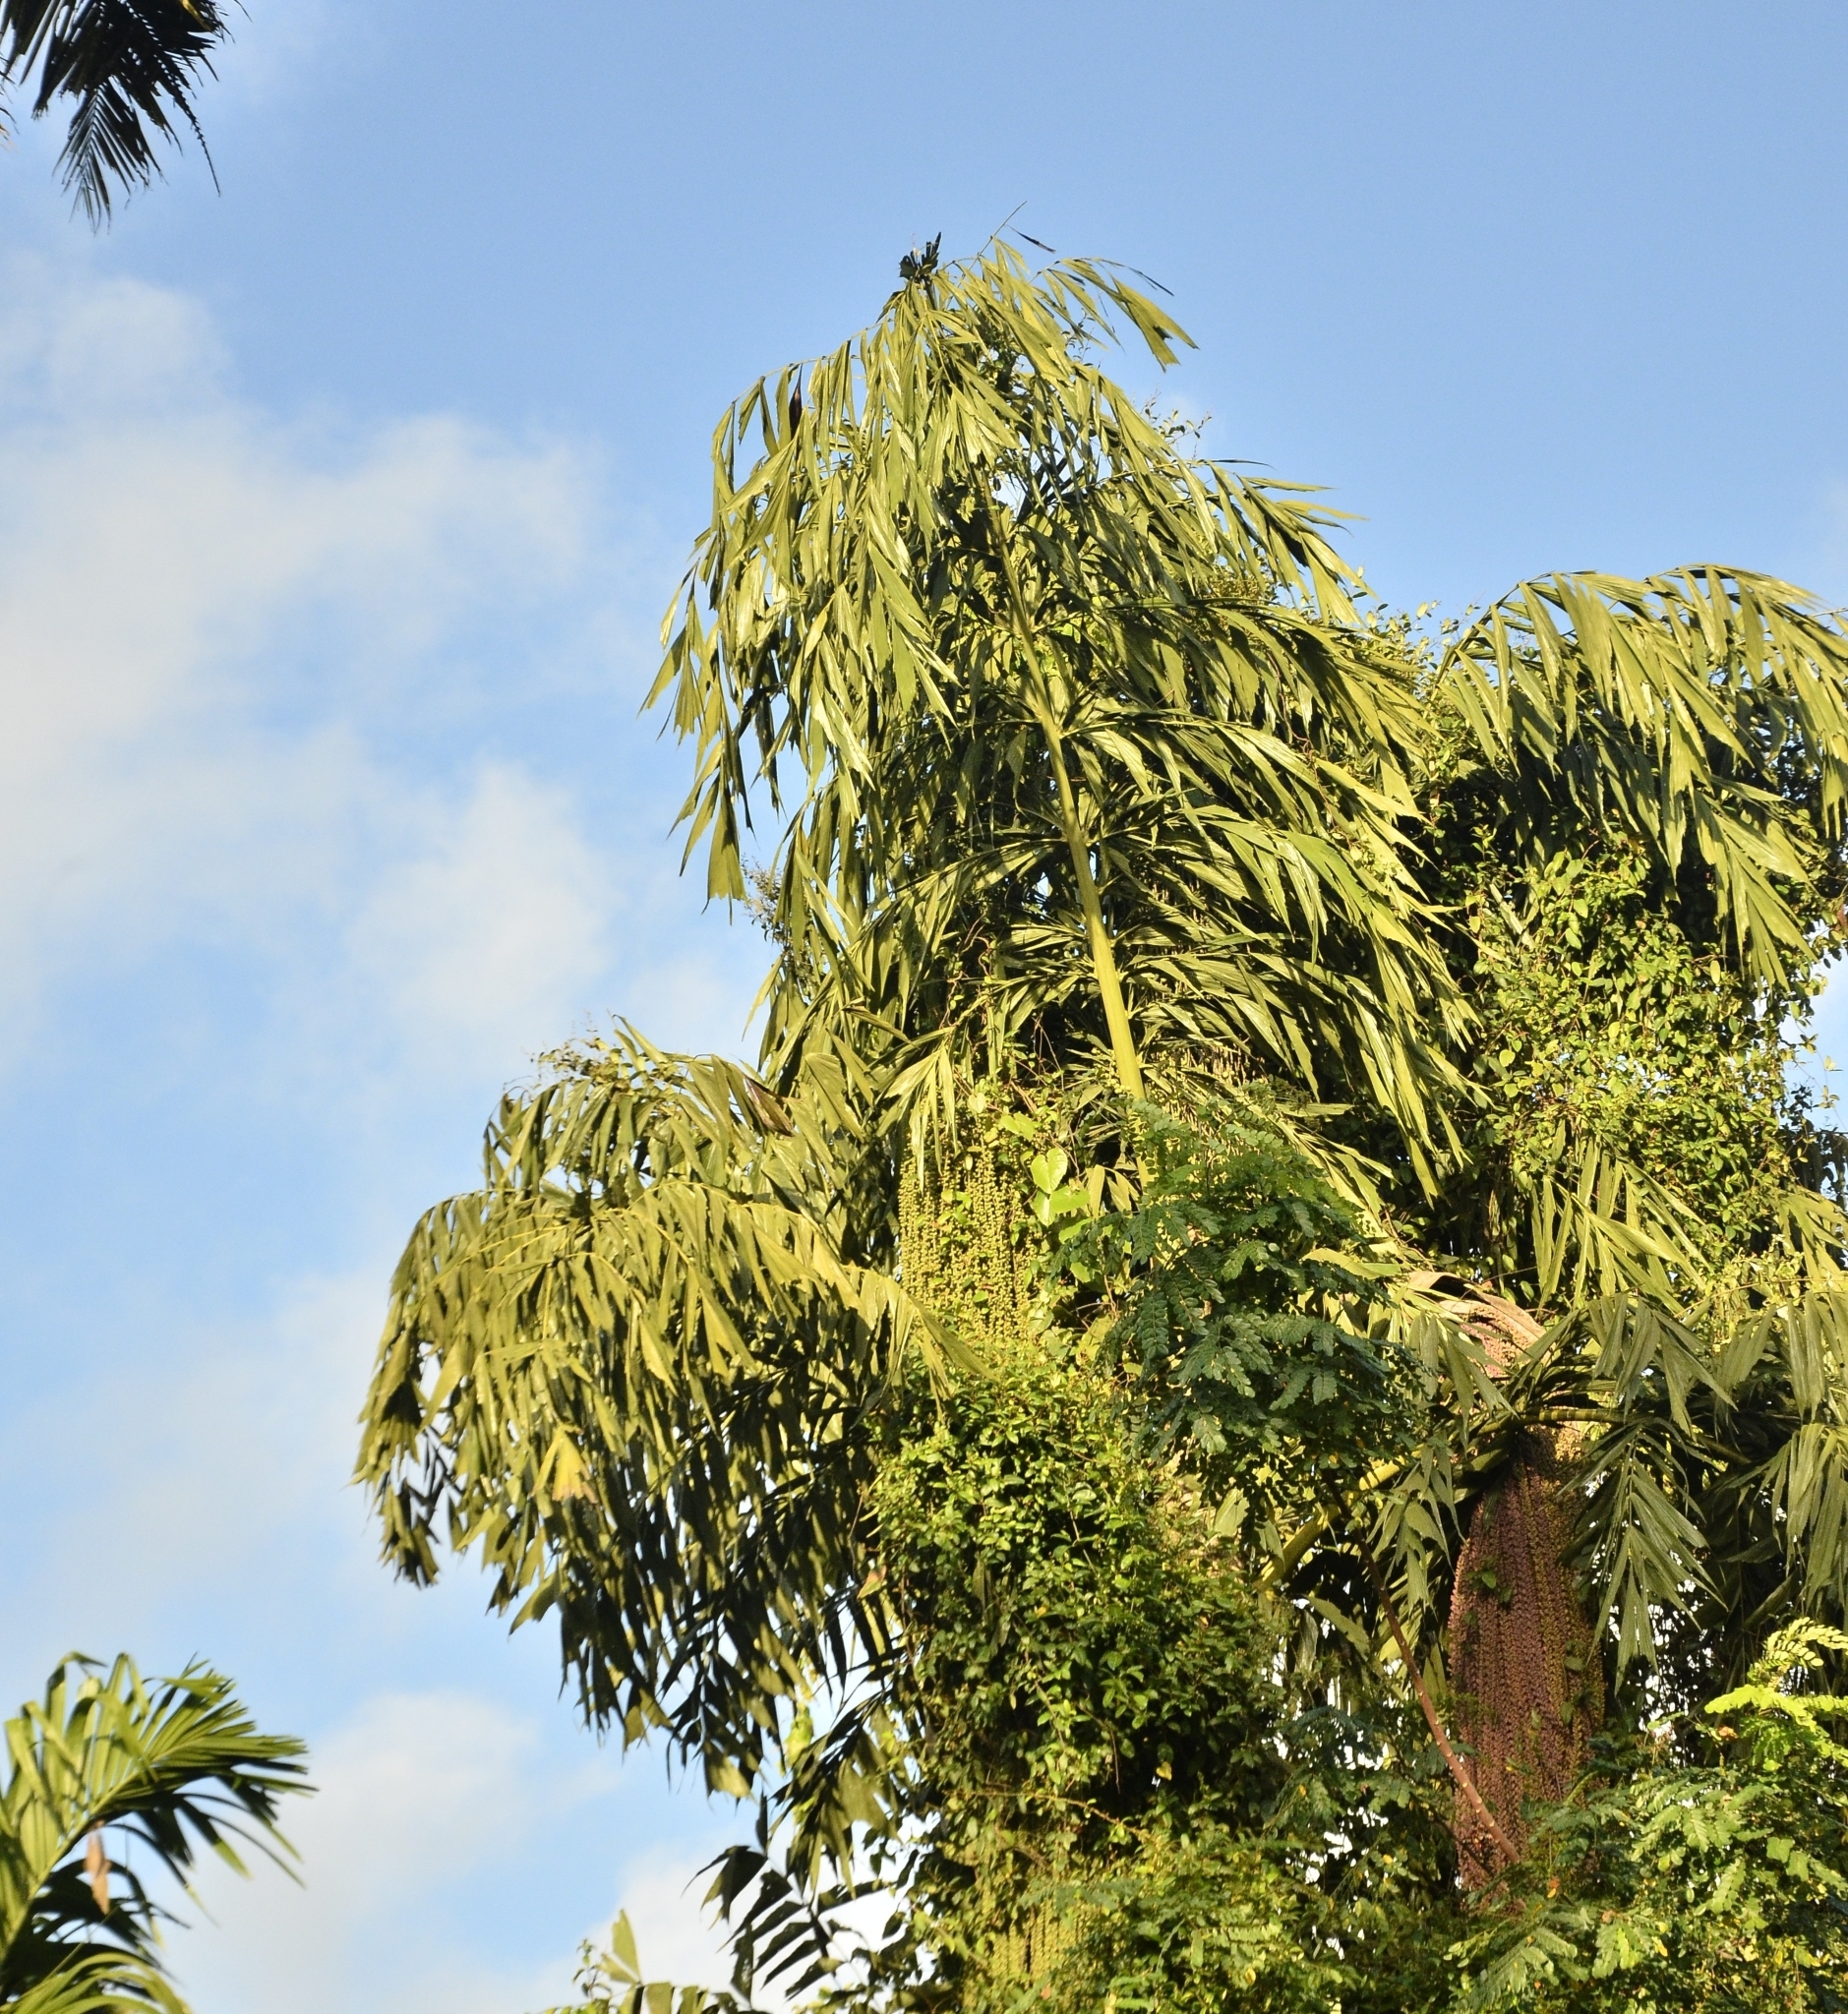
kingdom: Plantae
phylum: Tracheophyta
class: Liliopsida
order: Arecales
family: Arecaceae
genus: Caryota
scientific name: Caryota urens
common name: Jaggery palm
